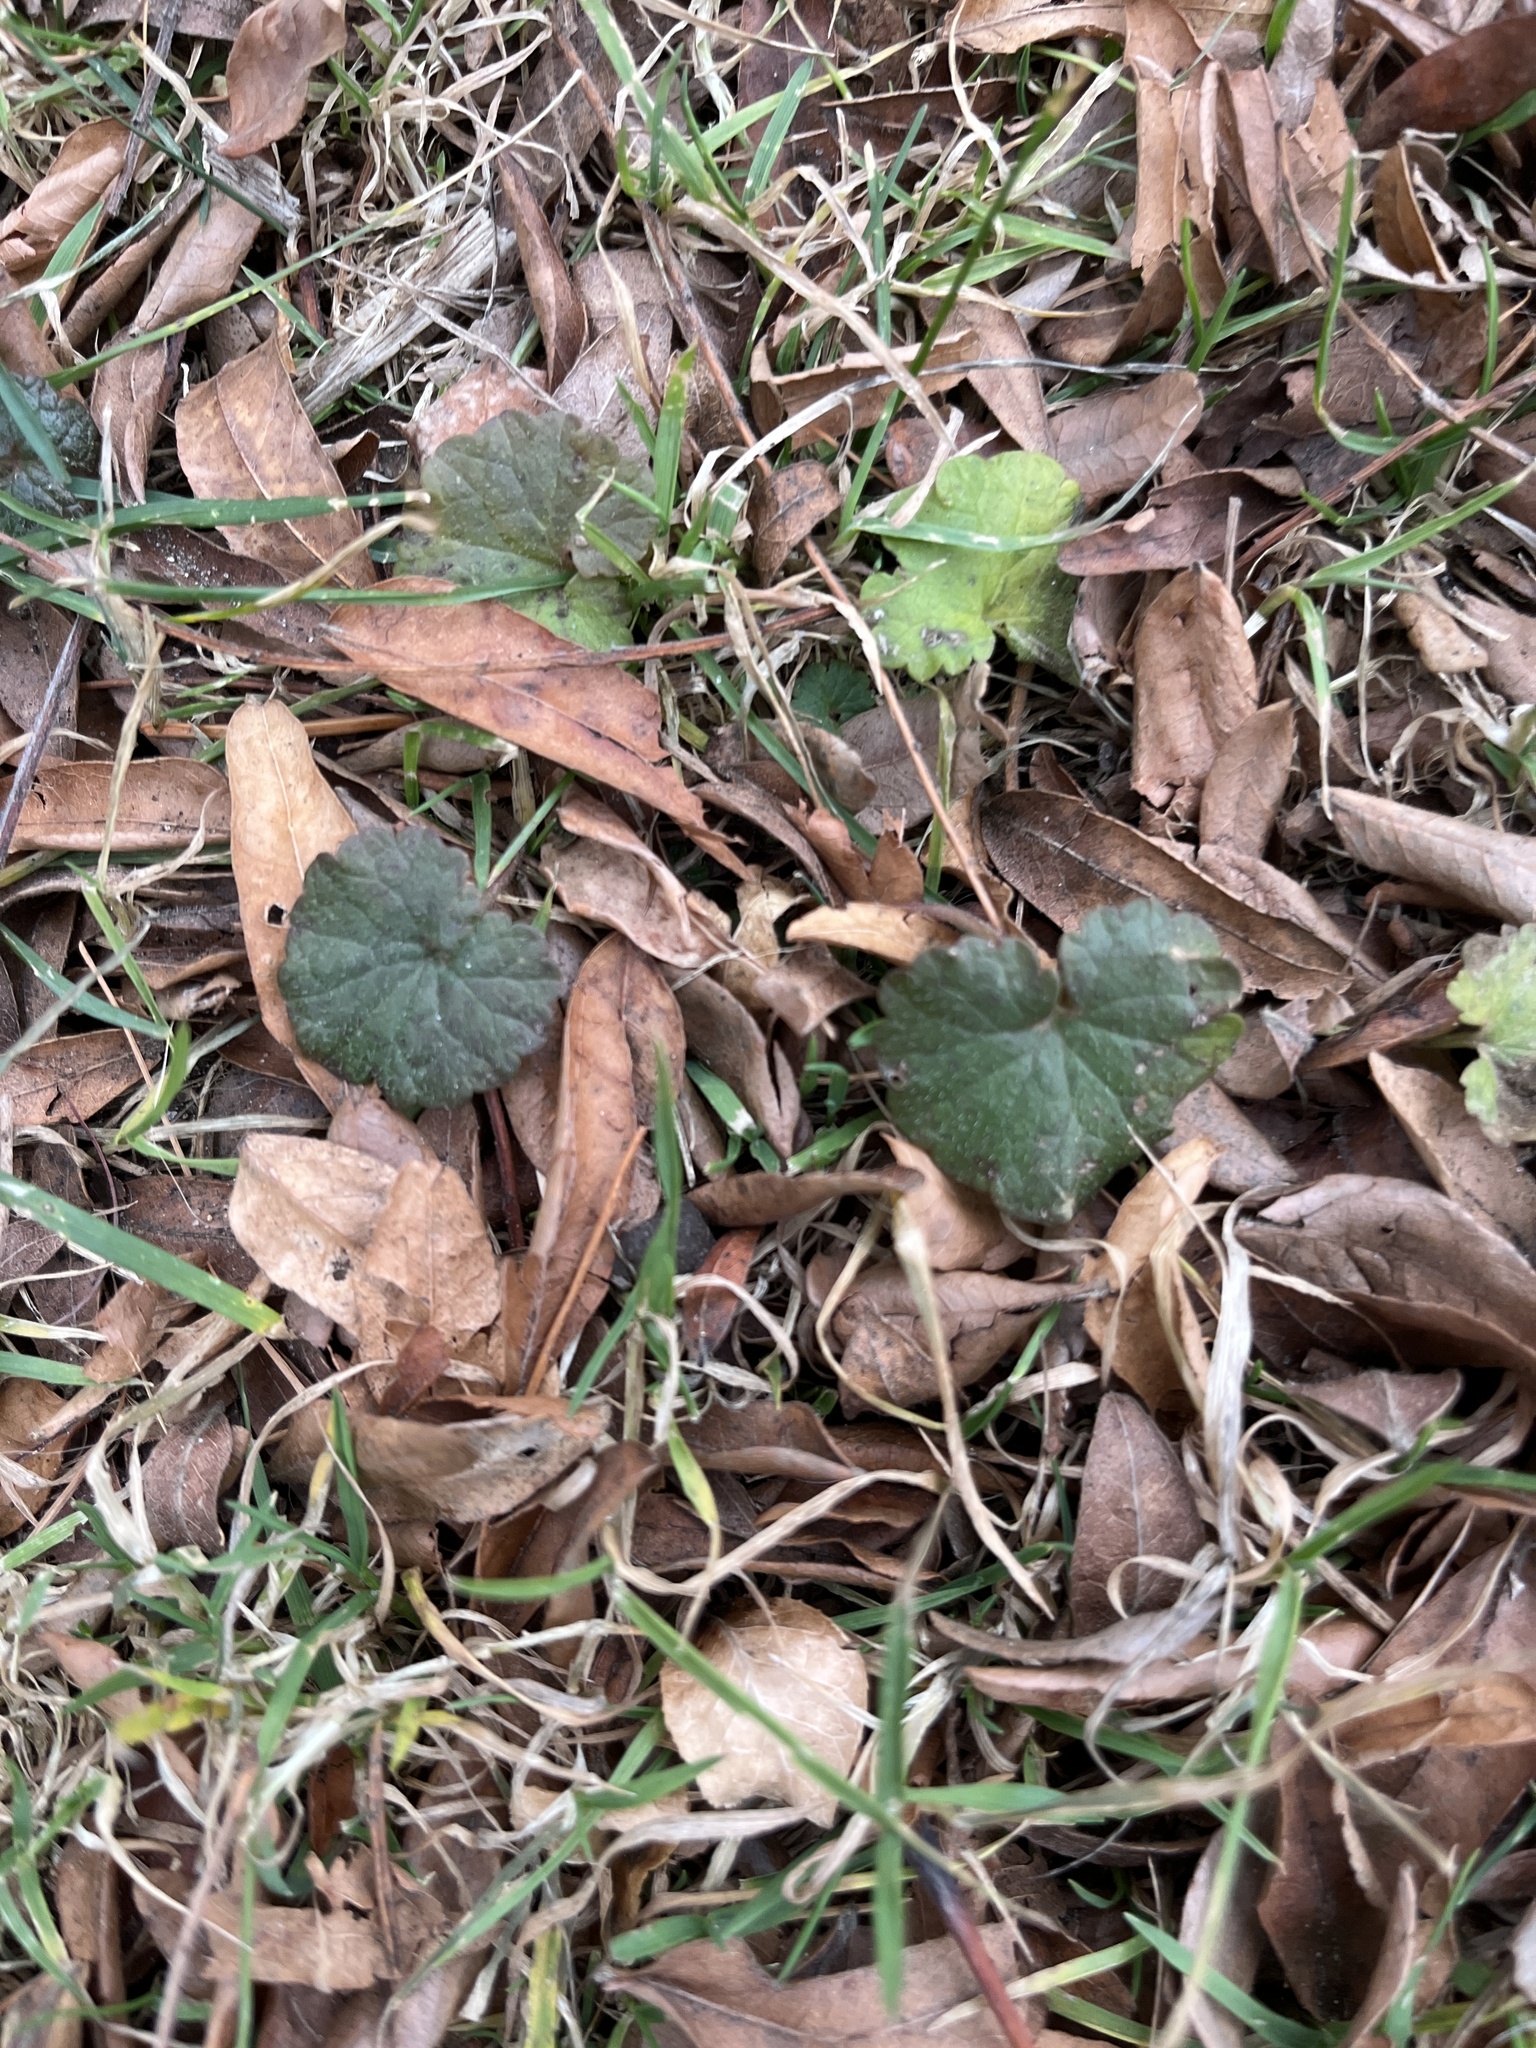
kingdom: Plantae
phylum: Tracheophyta
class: Magnoliopsida
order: Lamiales
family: Lamiaceae
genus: Glechoma
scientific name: Glechoma hederacea
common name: Ground ivy
